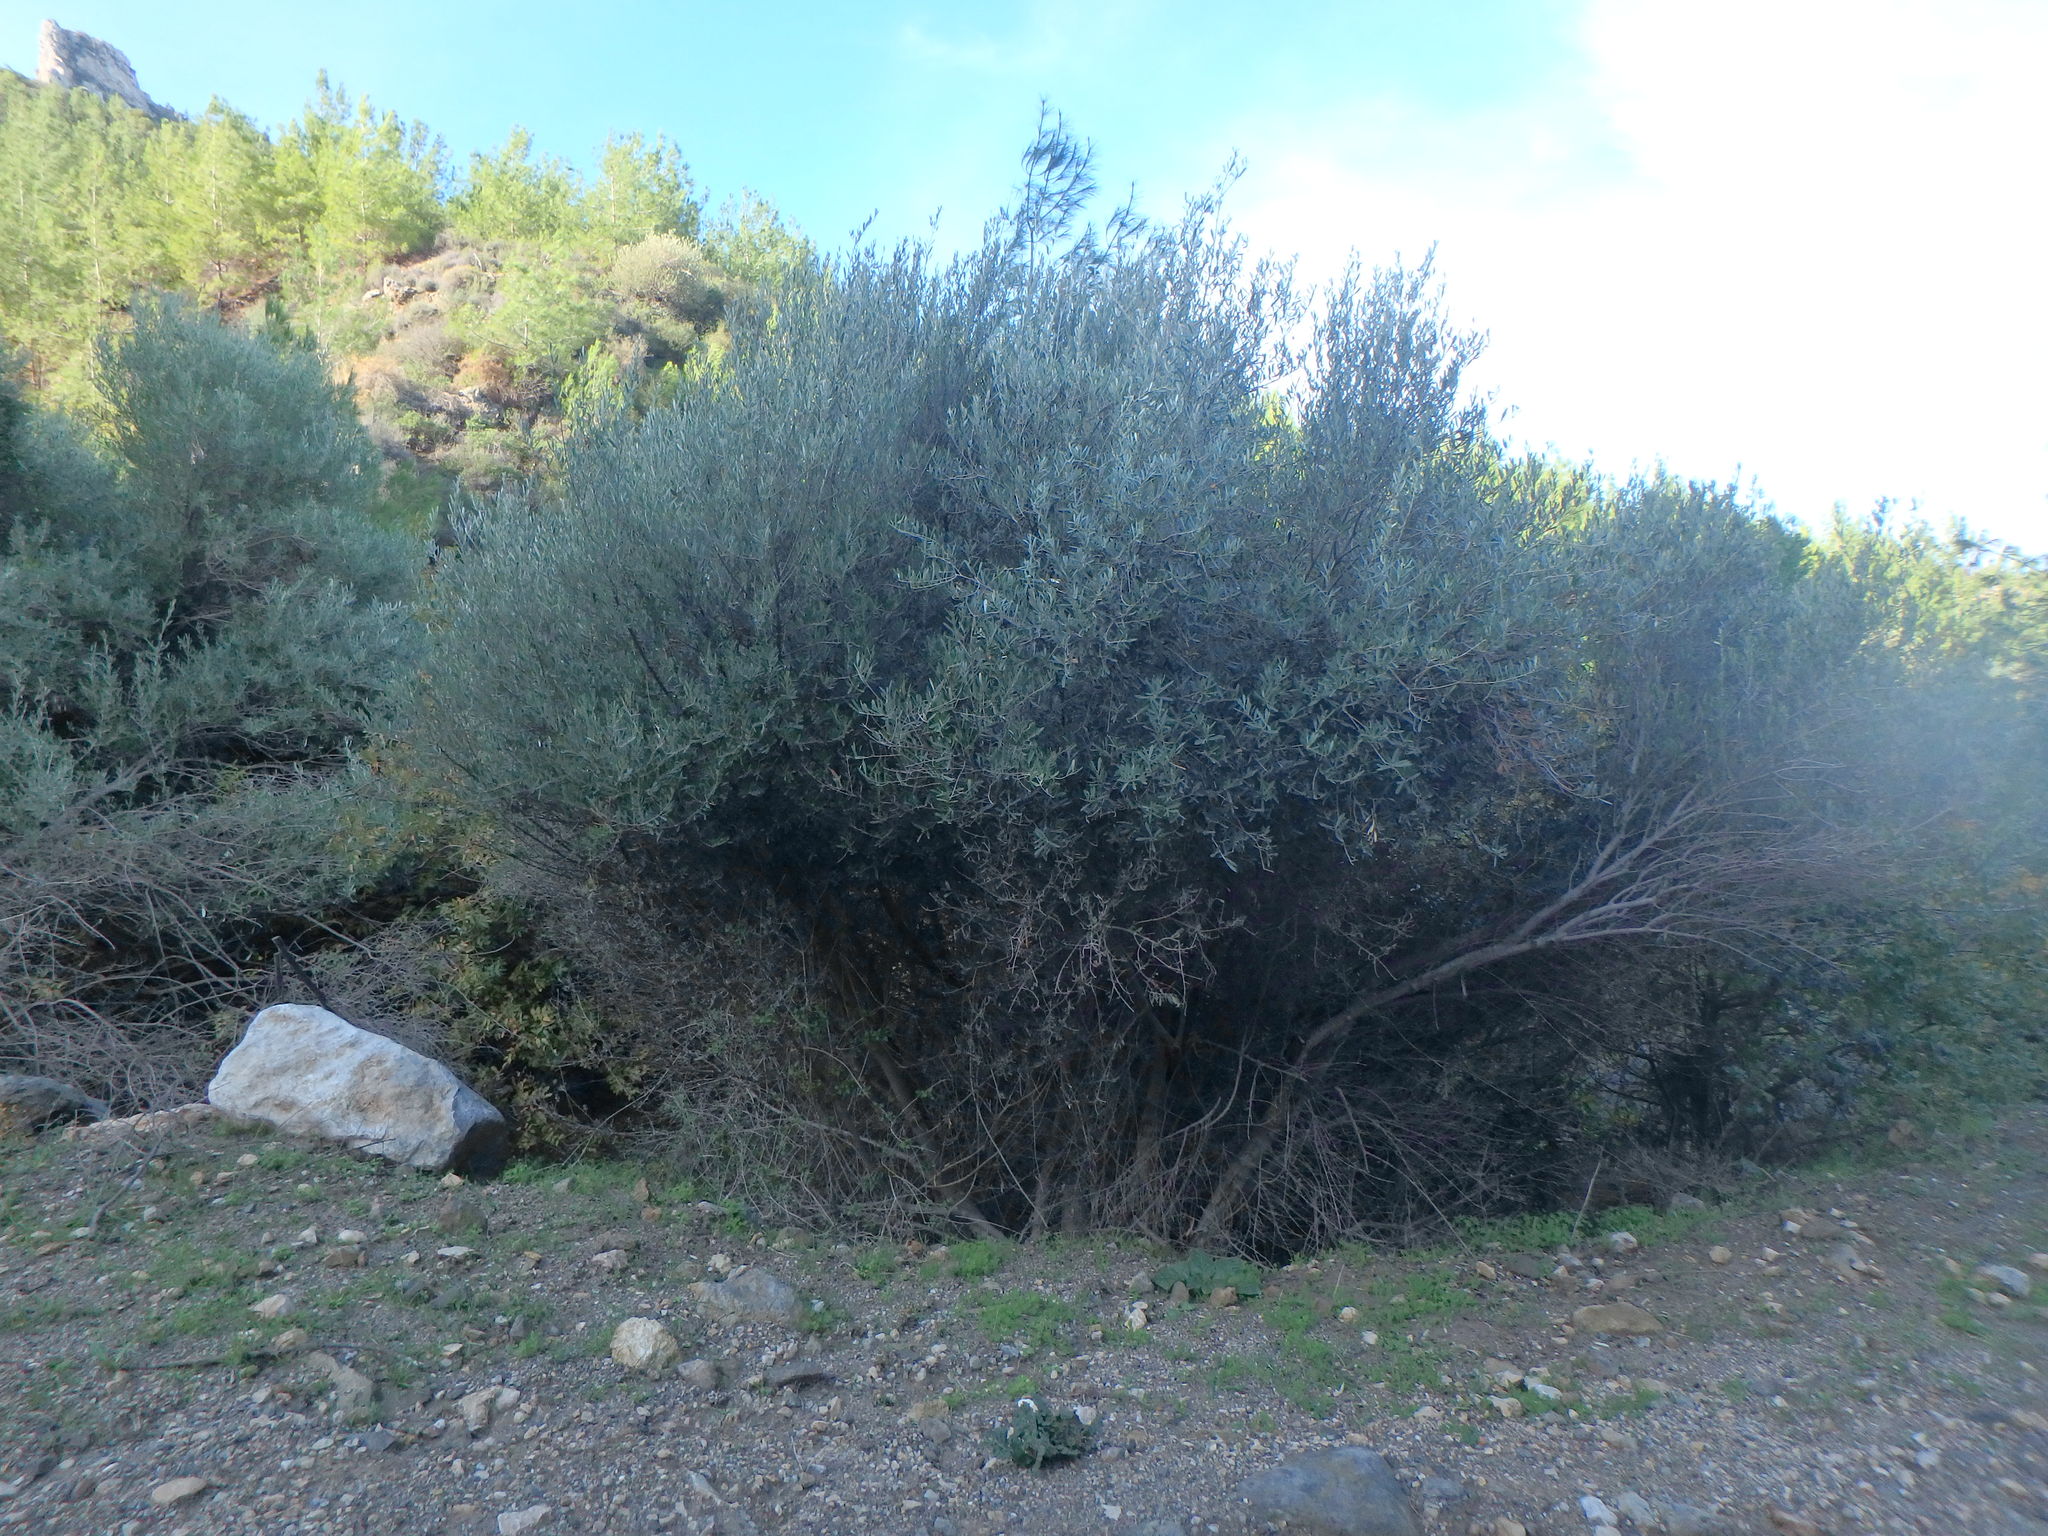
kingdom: Plantae
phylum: Tracheophyta
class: Magnoliopsida
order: Lamiales
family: Oleaceae
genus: Olea
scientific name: Olea europaea
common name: Olive
